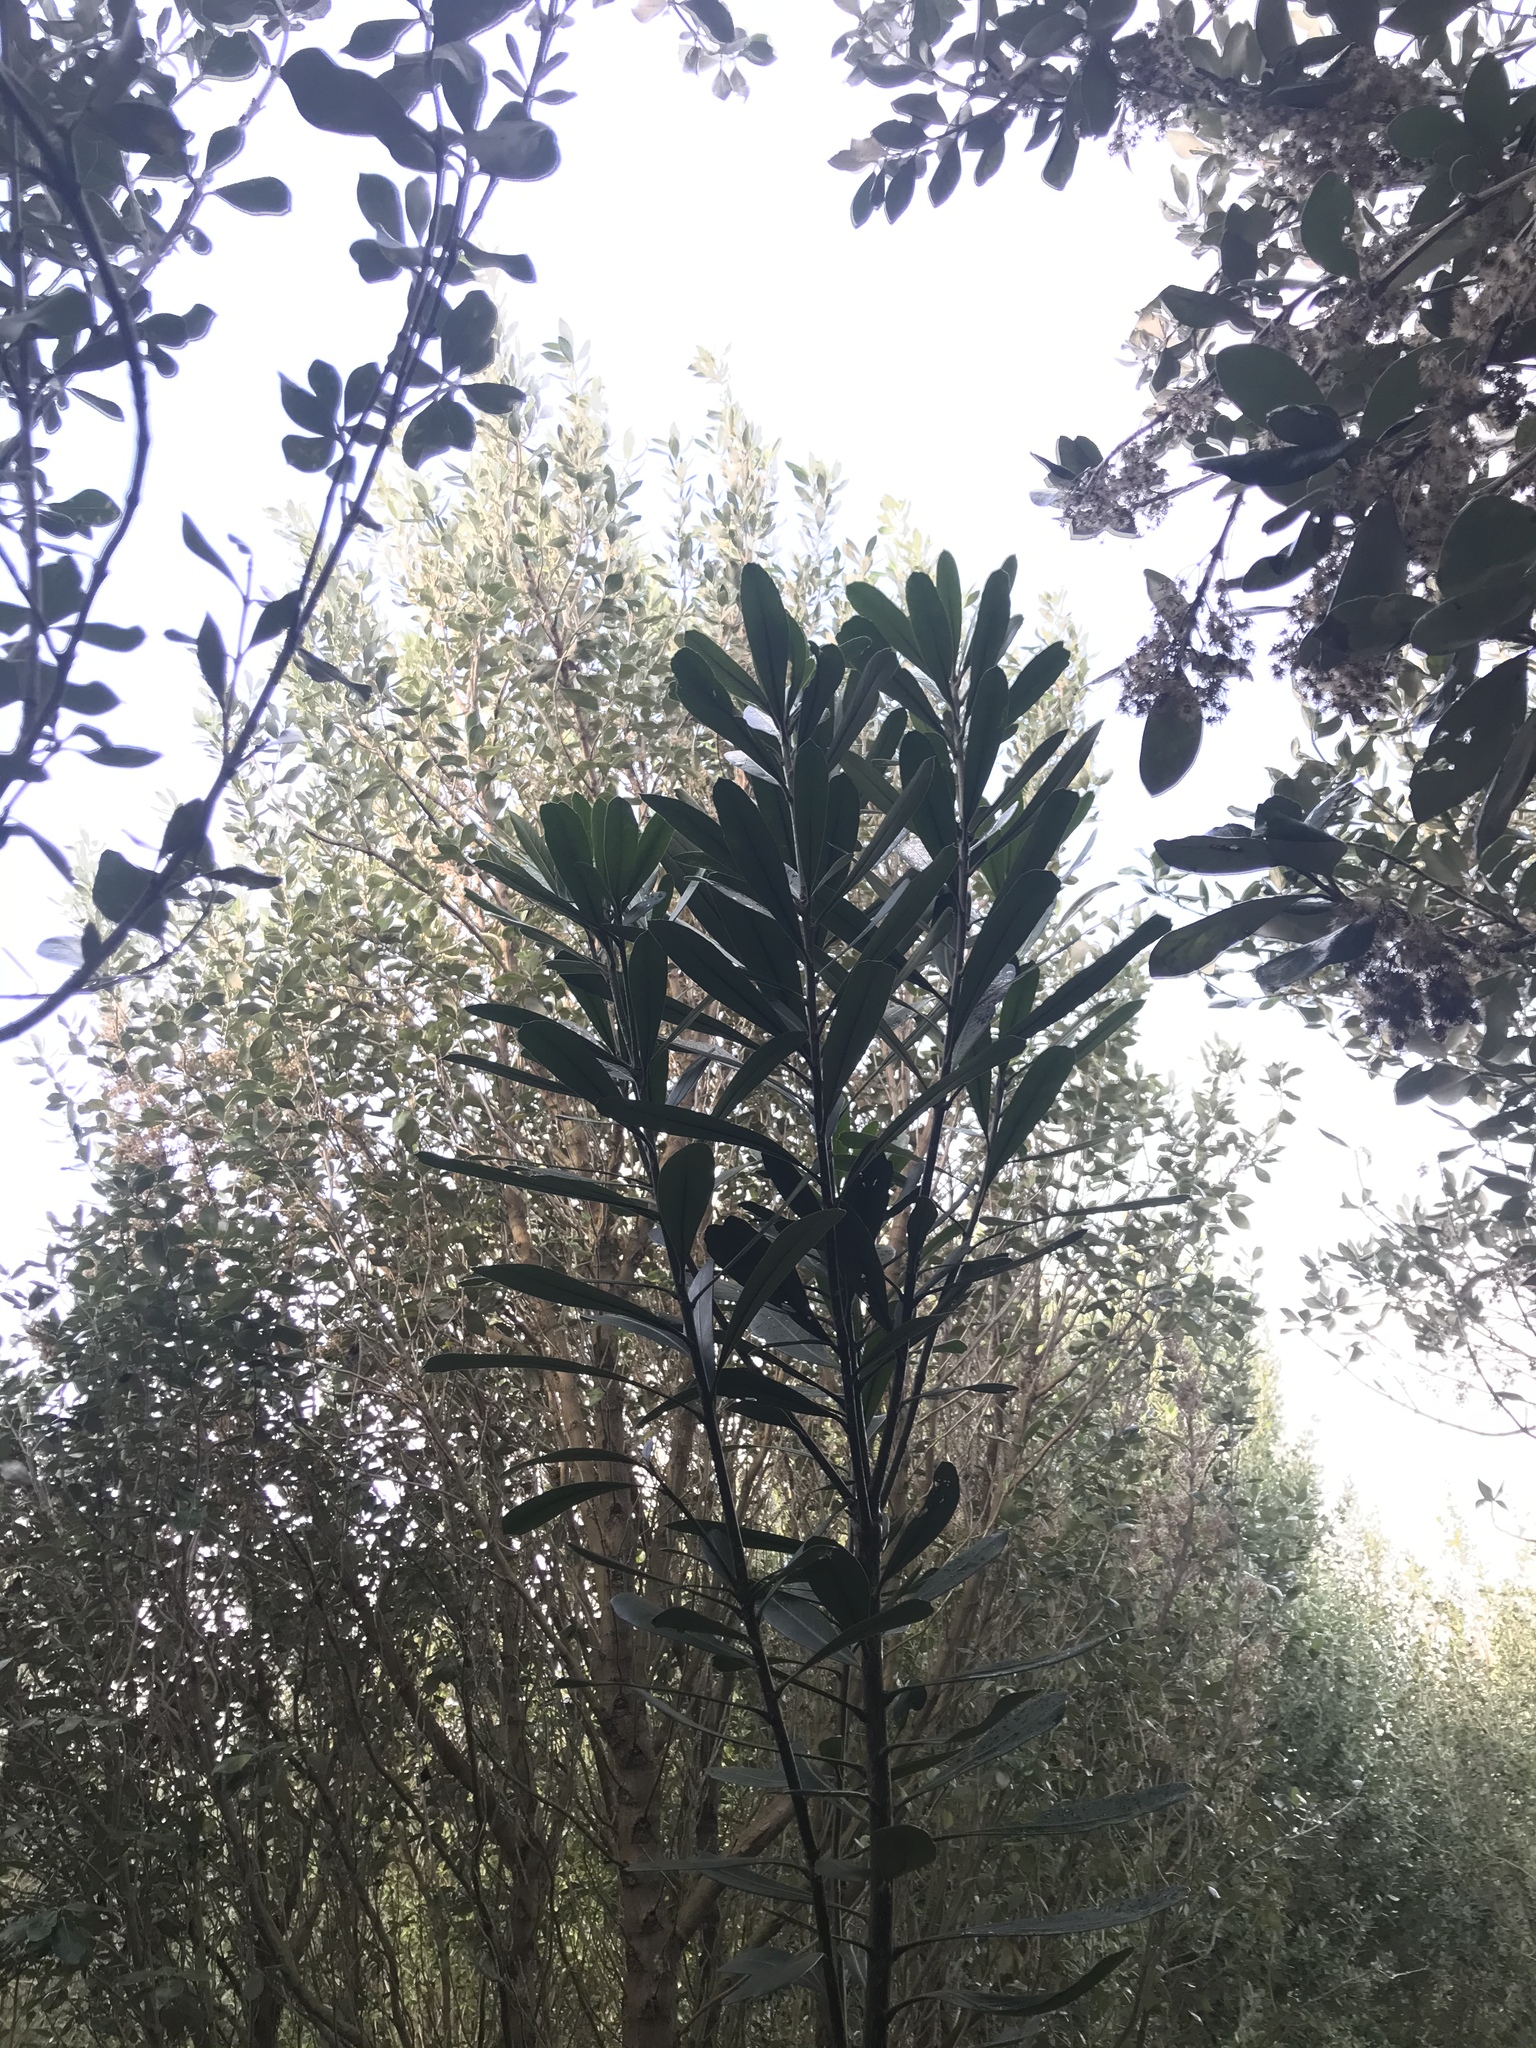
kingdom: Plantae
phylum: Tracheophyta
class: Magnoliopsida
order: Apiales
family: Araliaceae
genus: Pseudopanax
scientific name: Pseudopanax chathamicus
